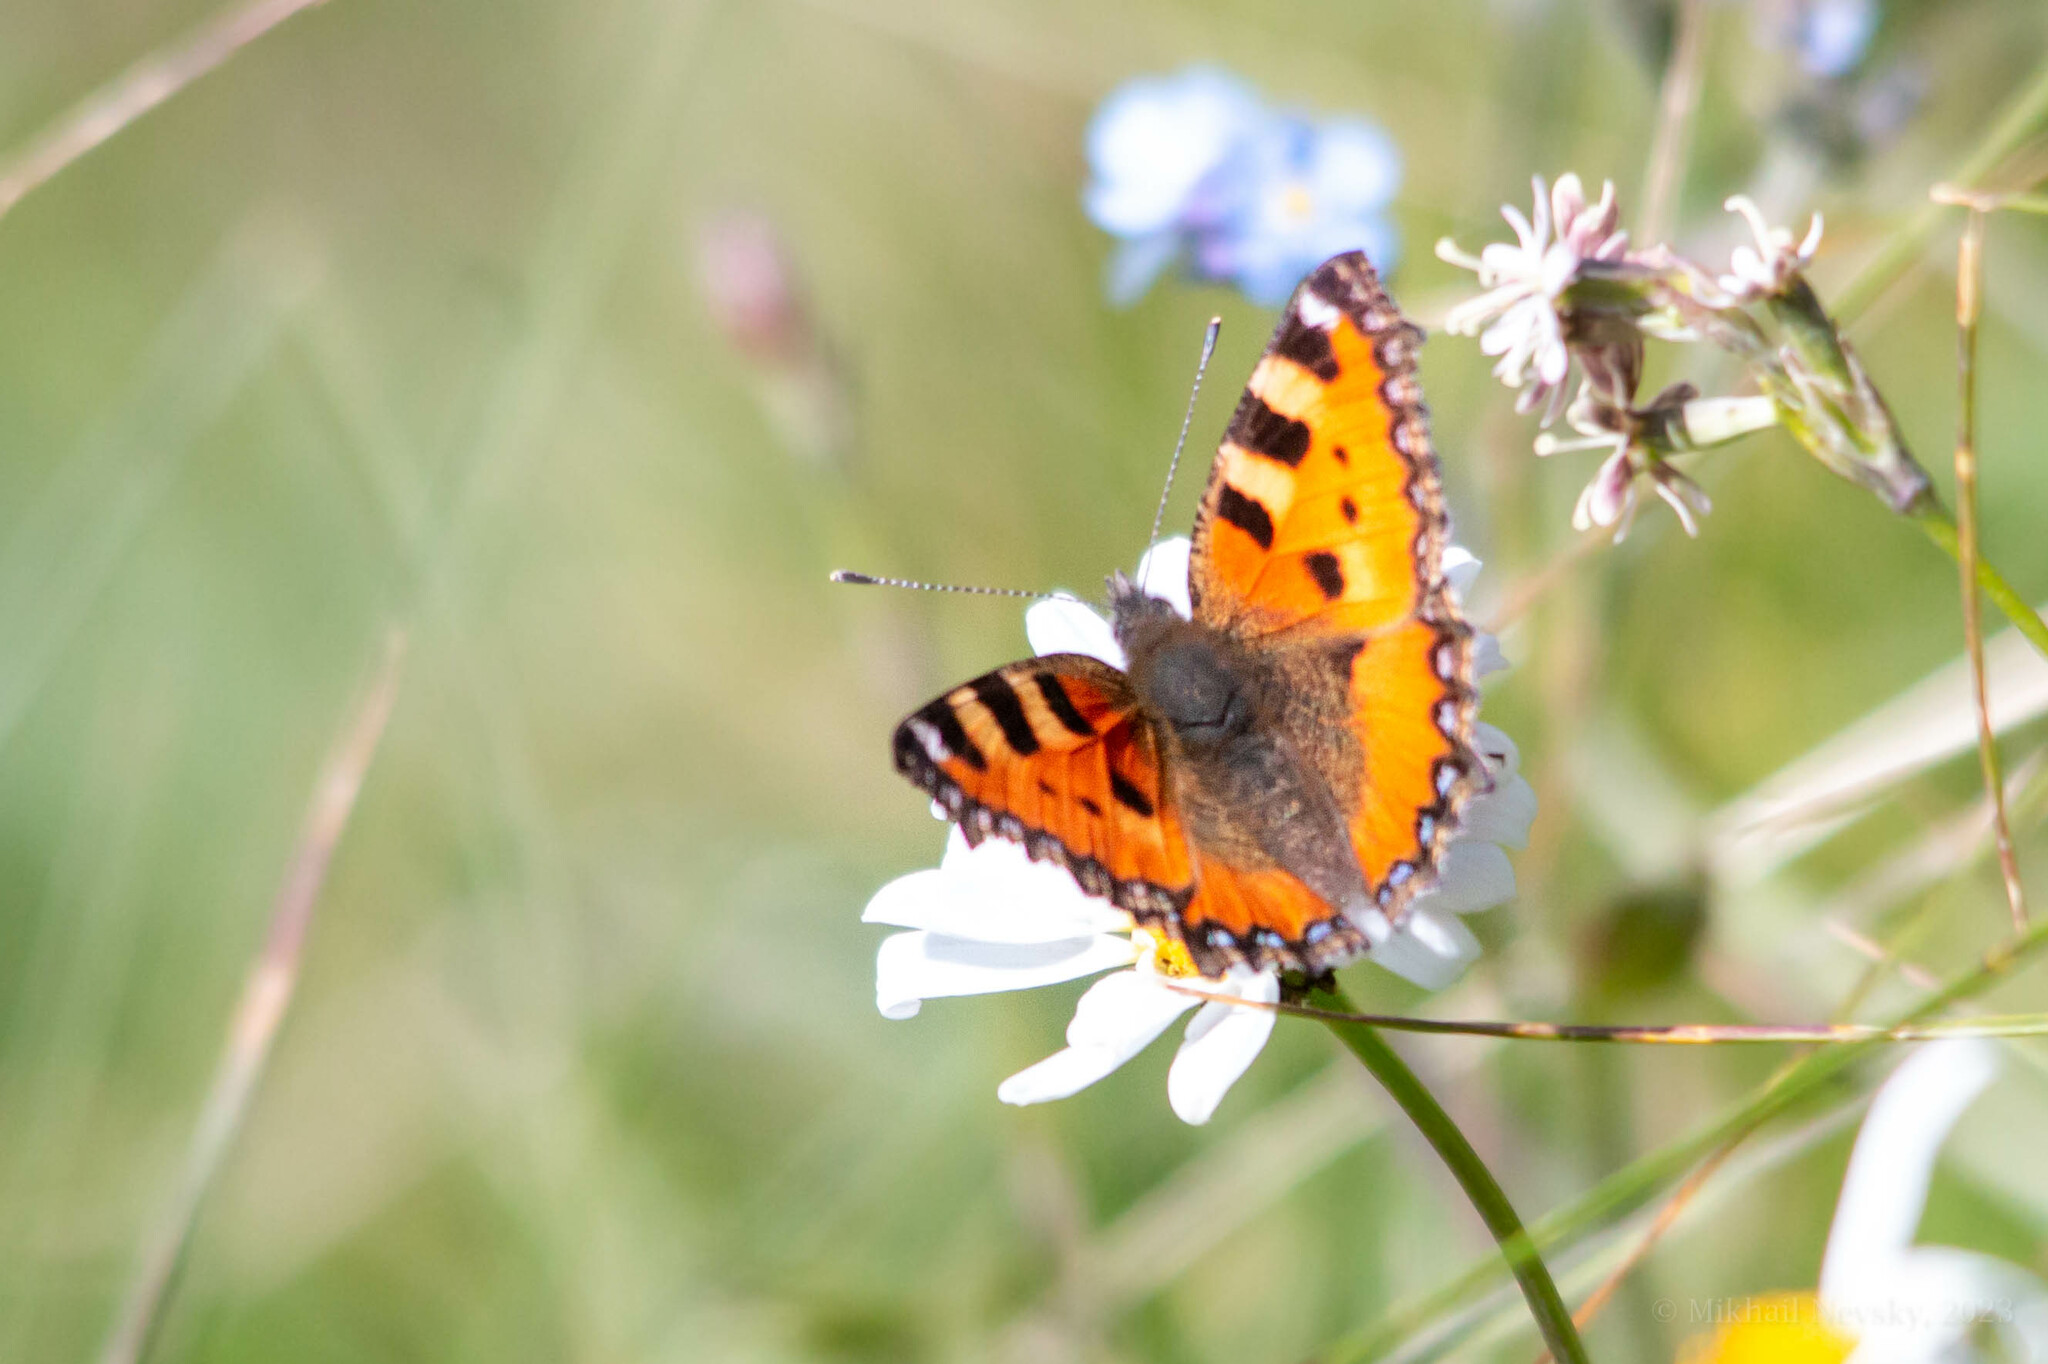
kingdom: Animalia
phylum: Arthropoda
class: Insecta
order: Lepidoptera
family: Nymphalidae
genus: Aglais
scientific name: Aglais urticae
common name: Small tortoiseshell
